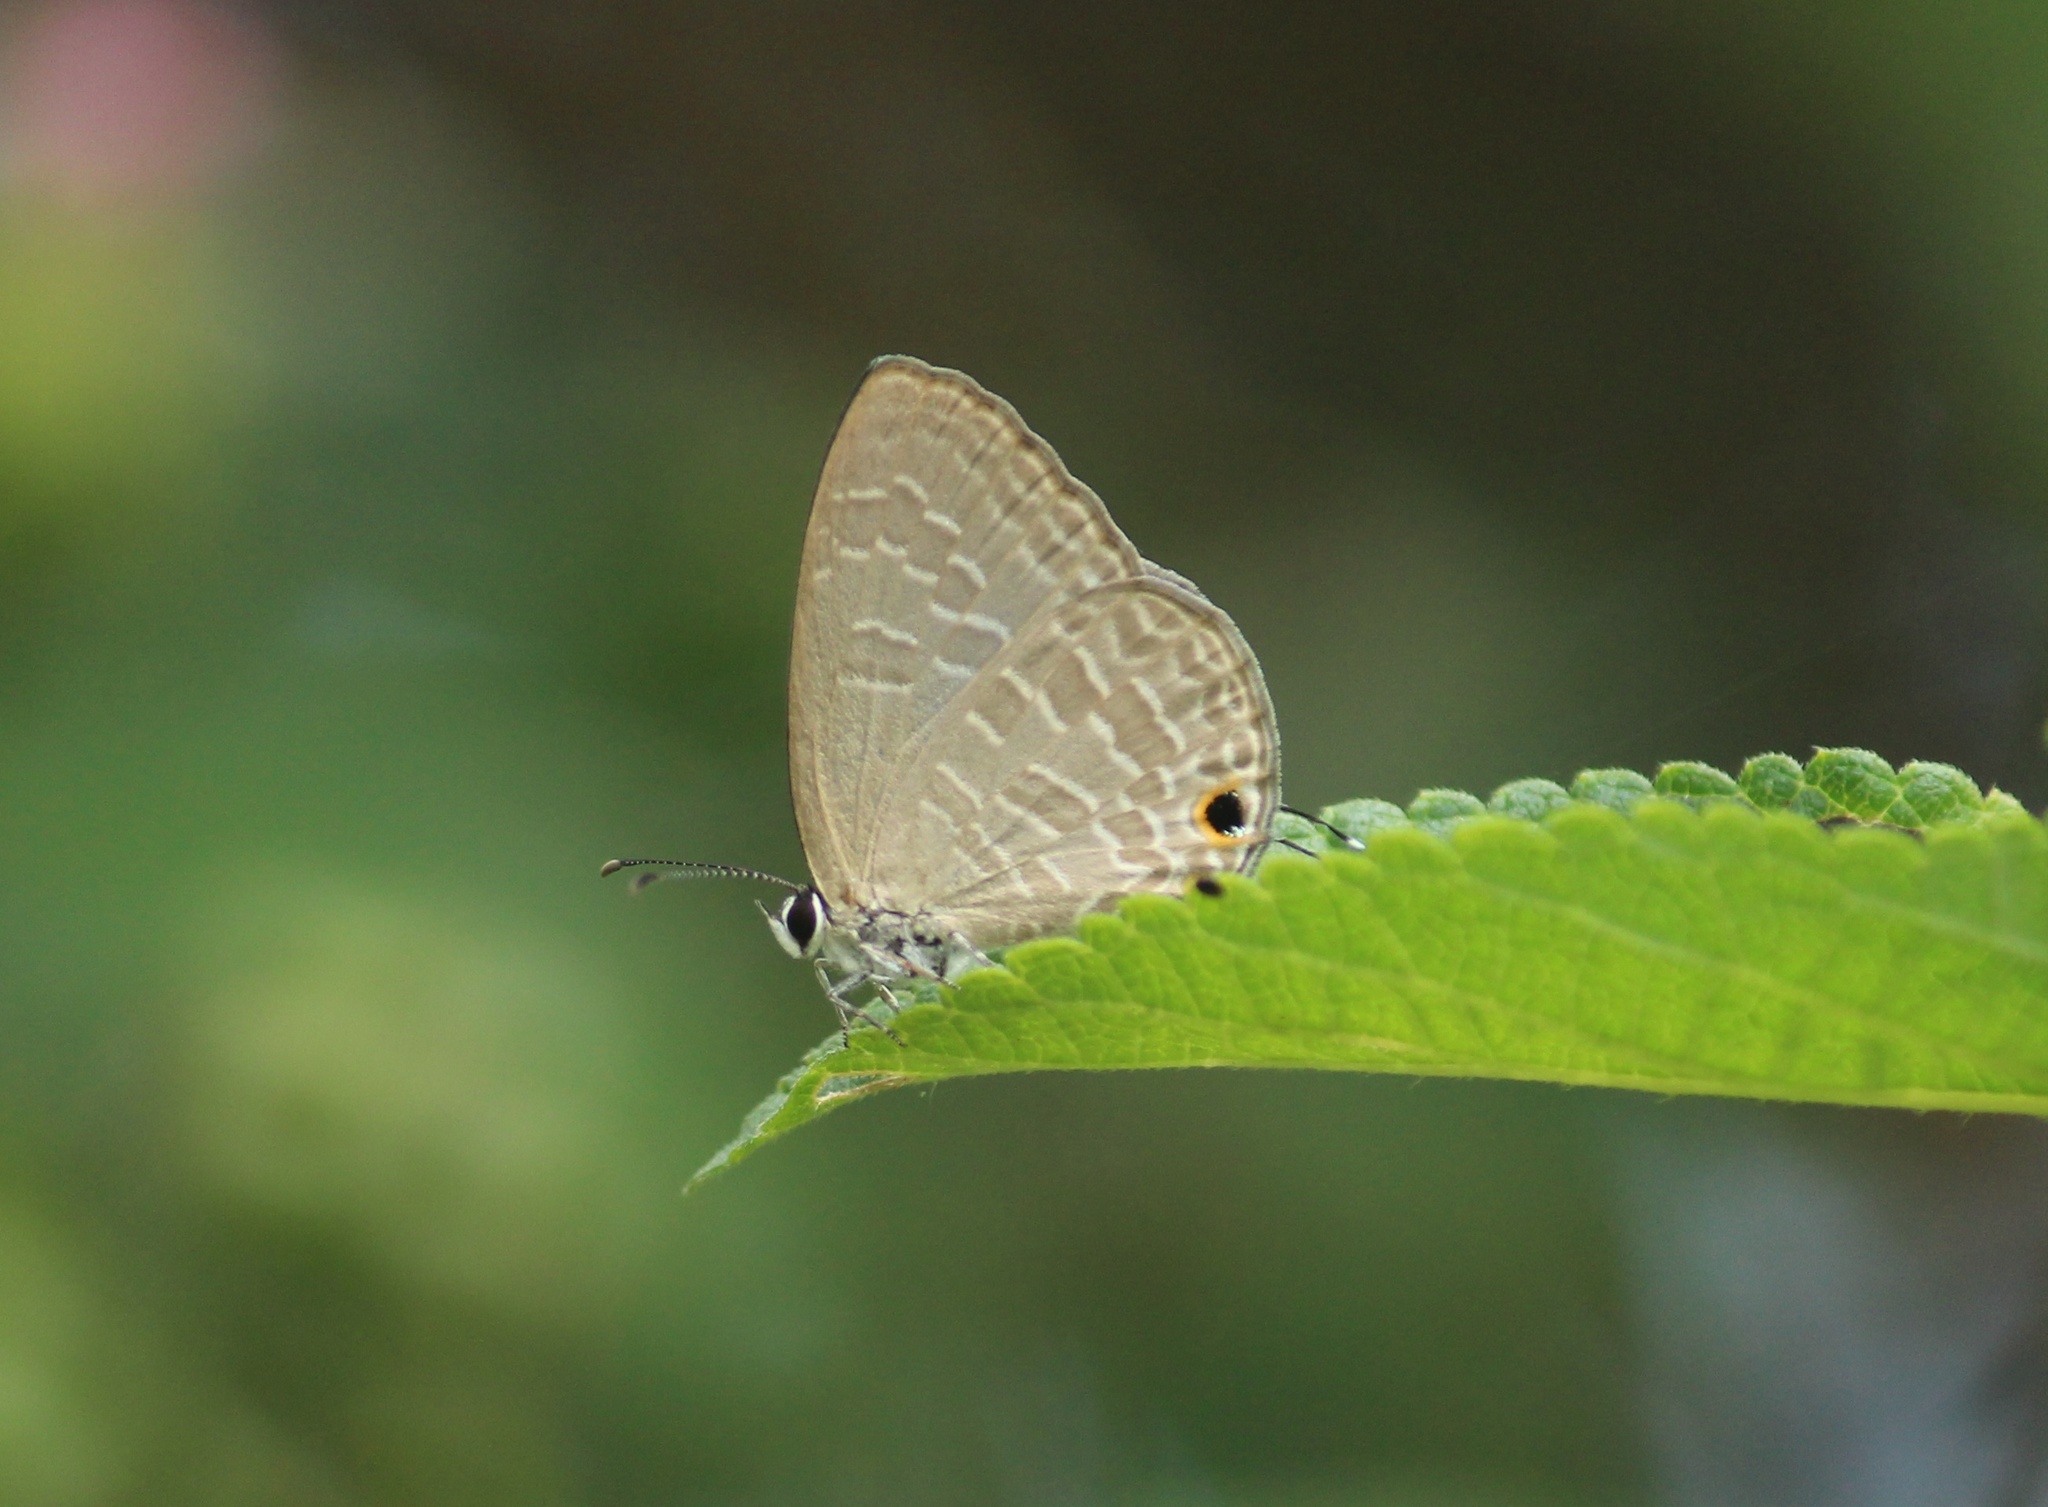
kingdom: Animalia
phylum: Arthropoda
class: Insecta
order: Lepidoptera
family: Lycaenidae
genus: Jamides
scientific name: Jamides bochus
